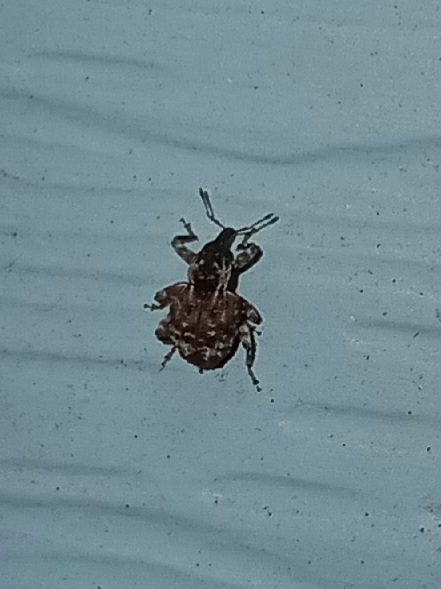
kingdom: Animalia
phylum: Arthropoda
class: Insecta
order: Coleoptera
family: Curculionidae
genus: Conotrachelus
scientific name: Conotrachelus anaglypticus
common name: Cambium curculio
